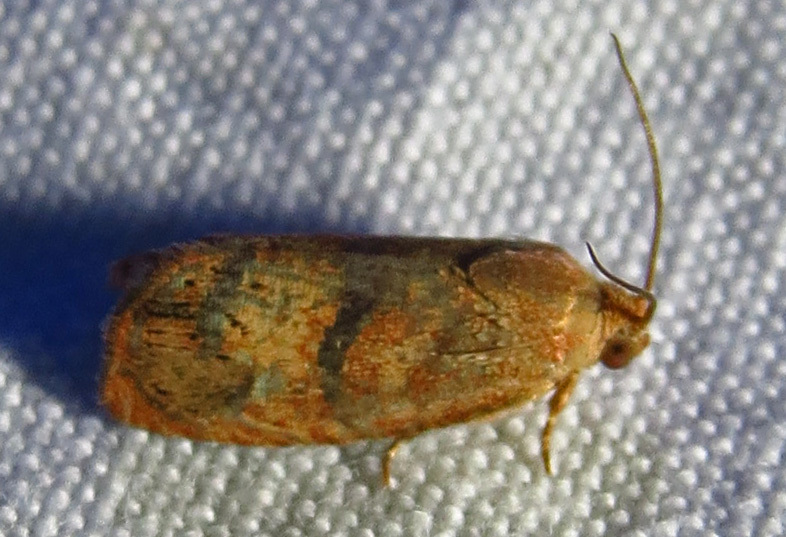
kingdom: Animalia
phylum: Arthropoda
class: Insecta
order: Lepidoptera
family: Tortricidae
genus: Cydia
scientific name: Cydia latiferreana
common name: Filbertworm moth
